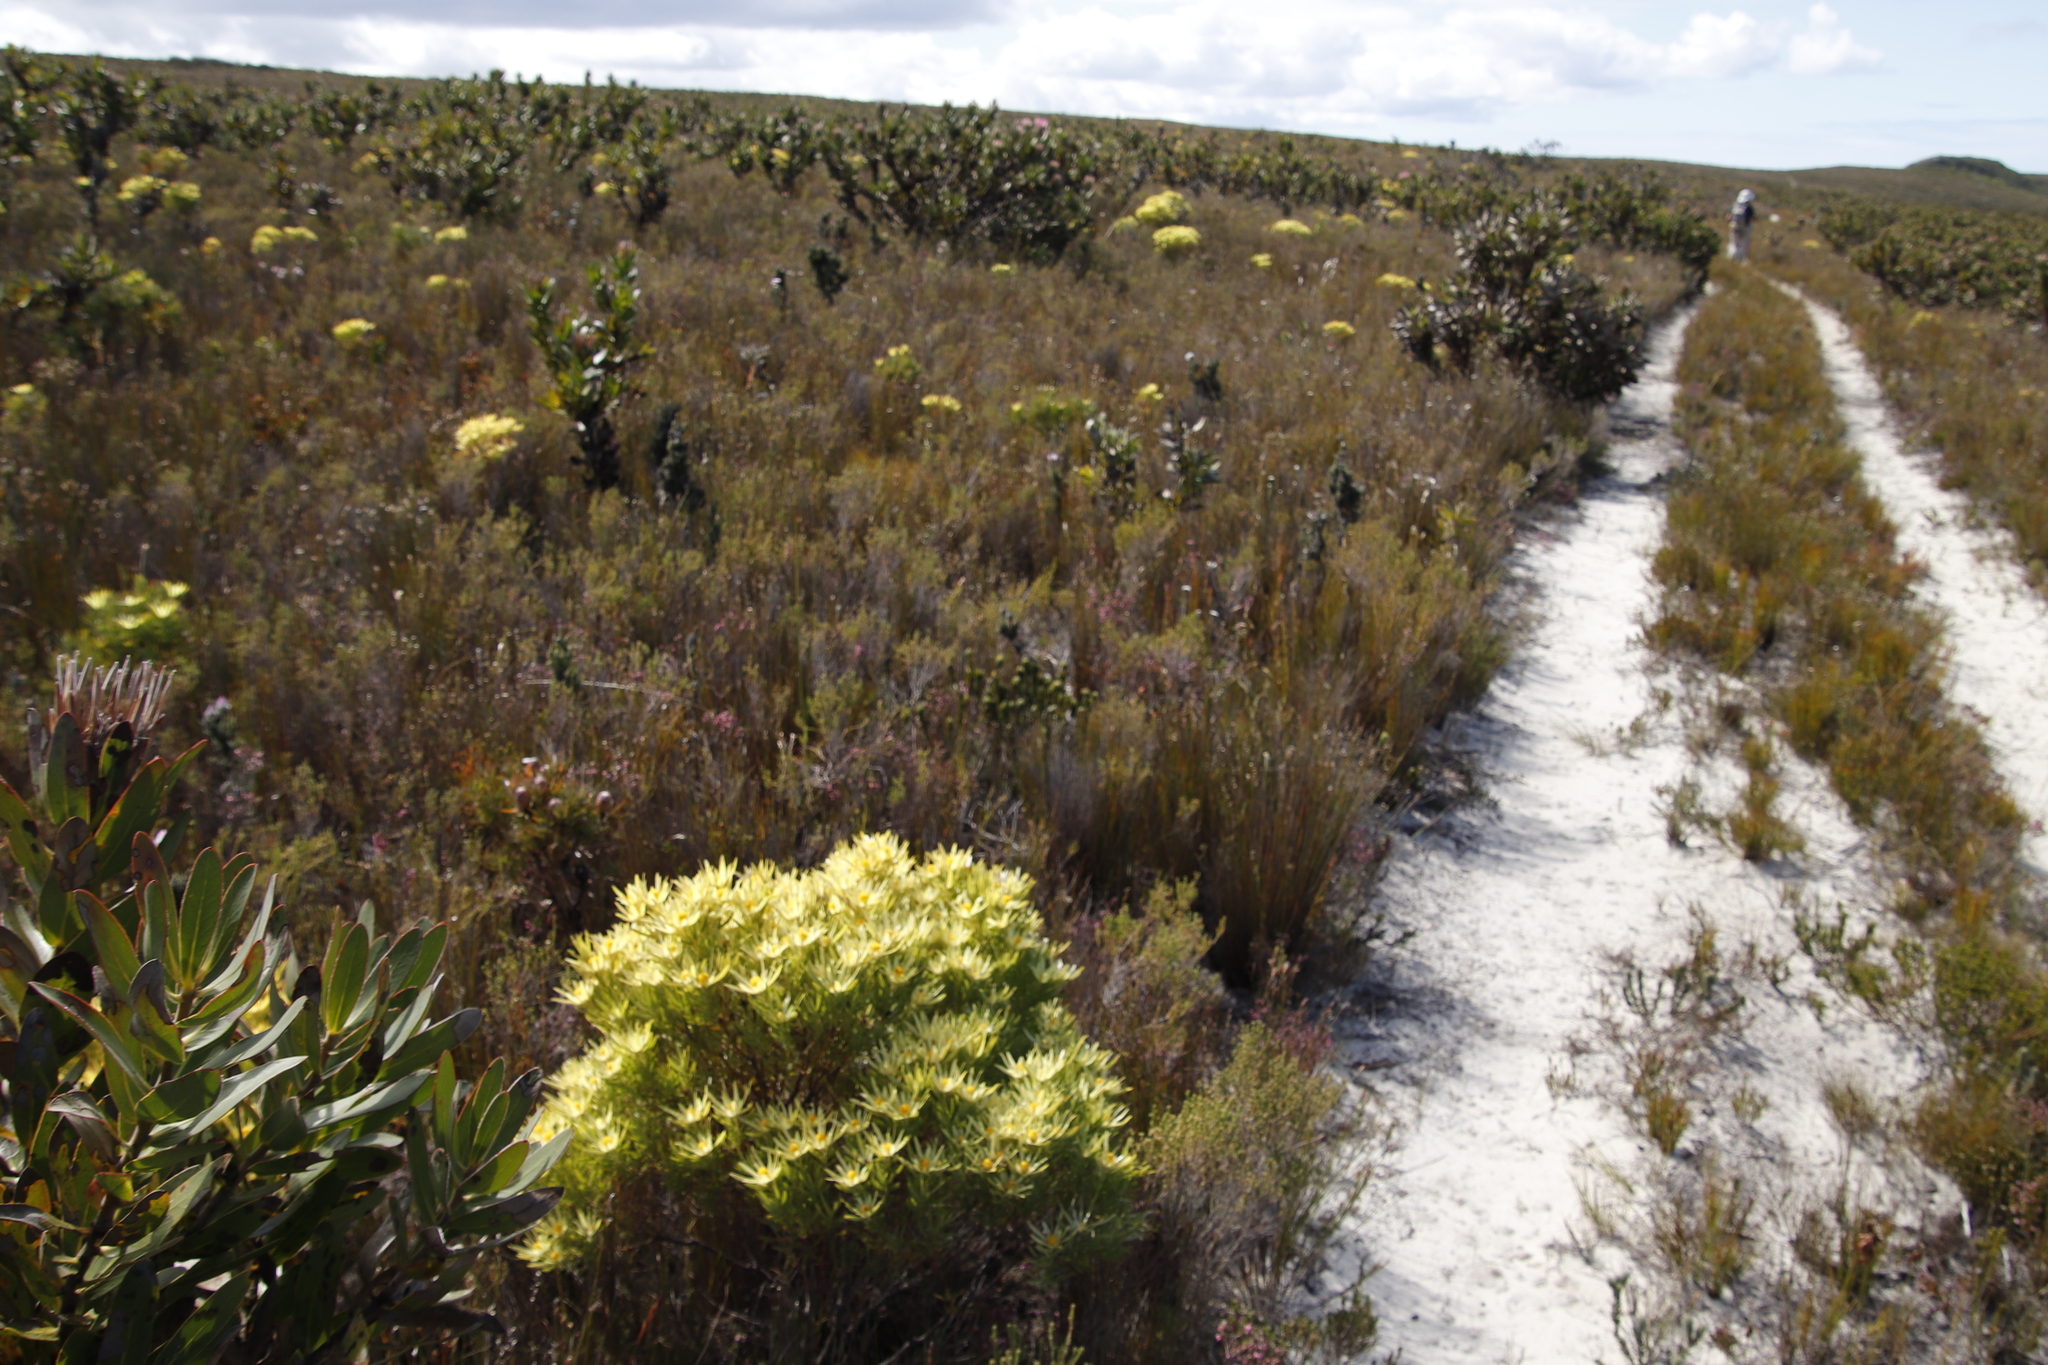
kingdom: Plantae
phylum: Tracheophyta
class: Magnoliopsida
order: Proteales
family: Proteaceae
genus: Leucadendron
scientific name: Leucadendron xanthoconus
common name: Sickle-leaf conebush
